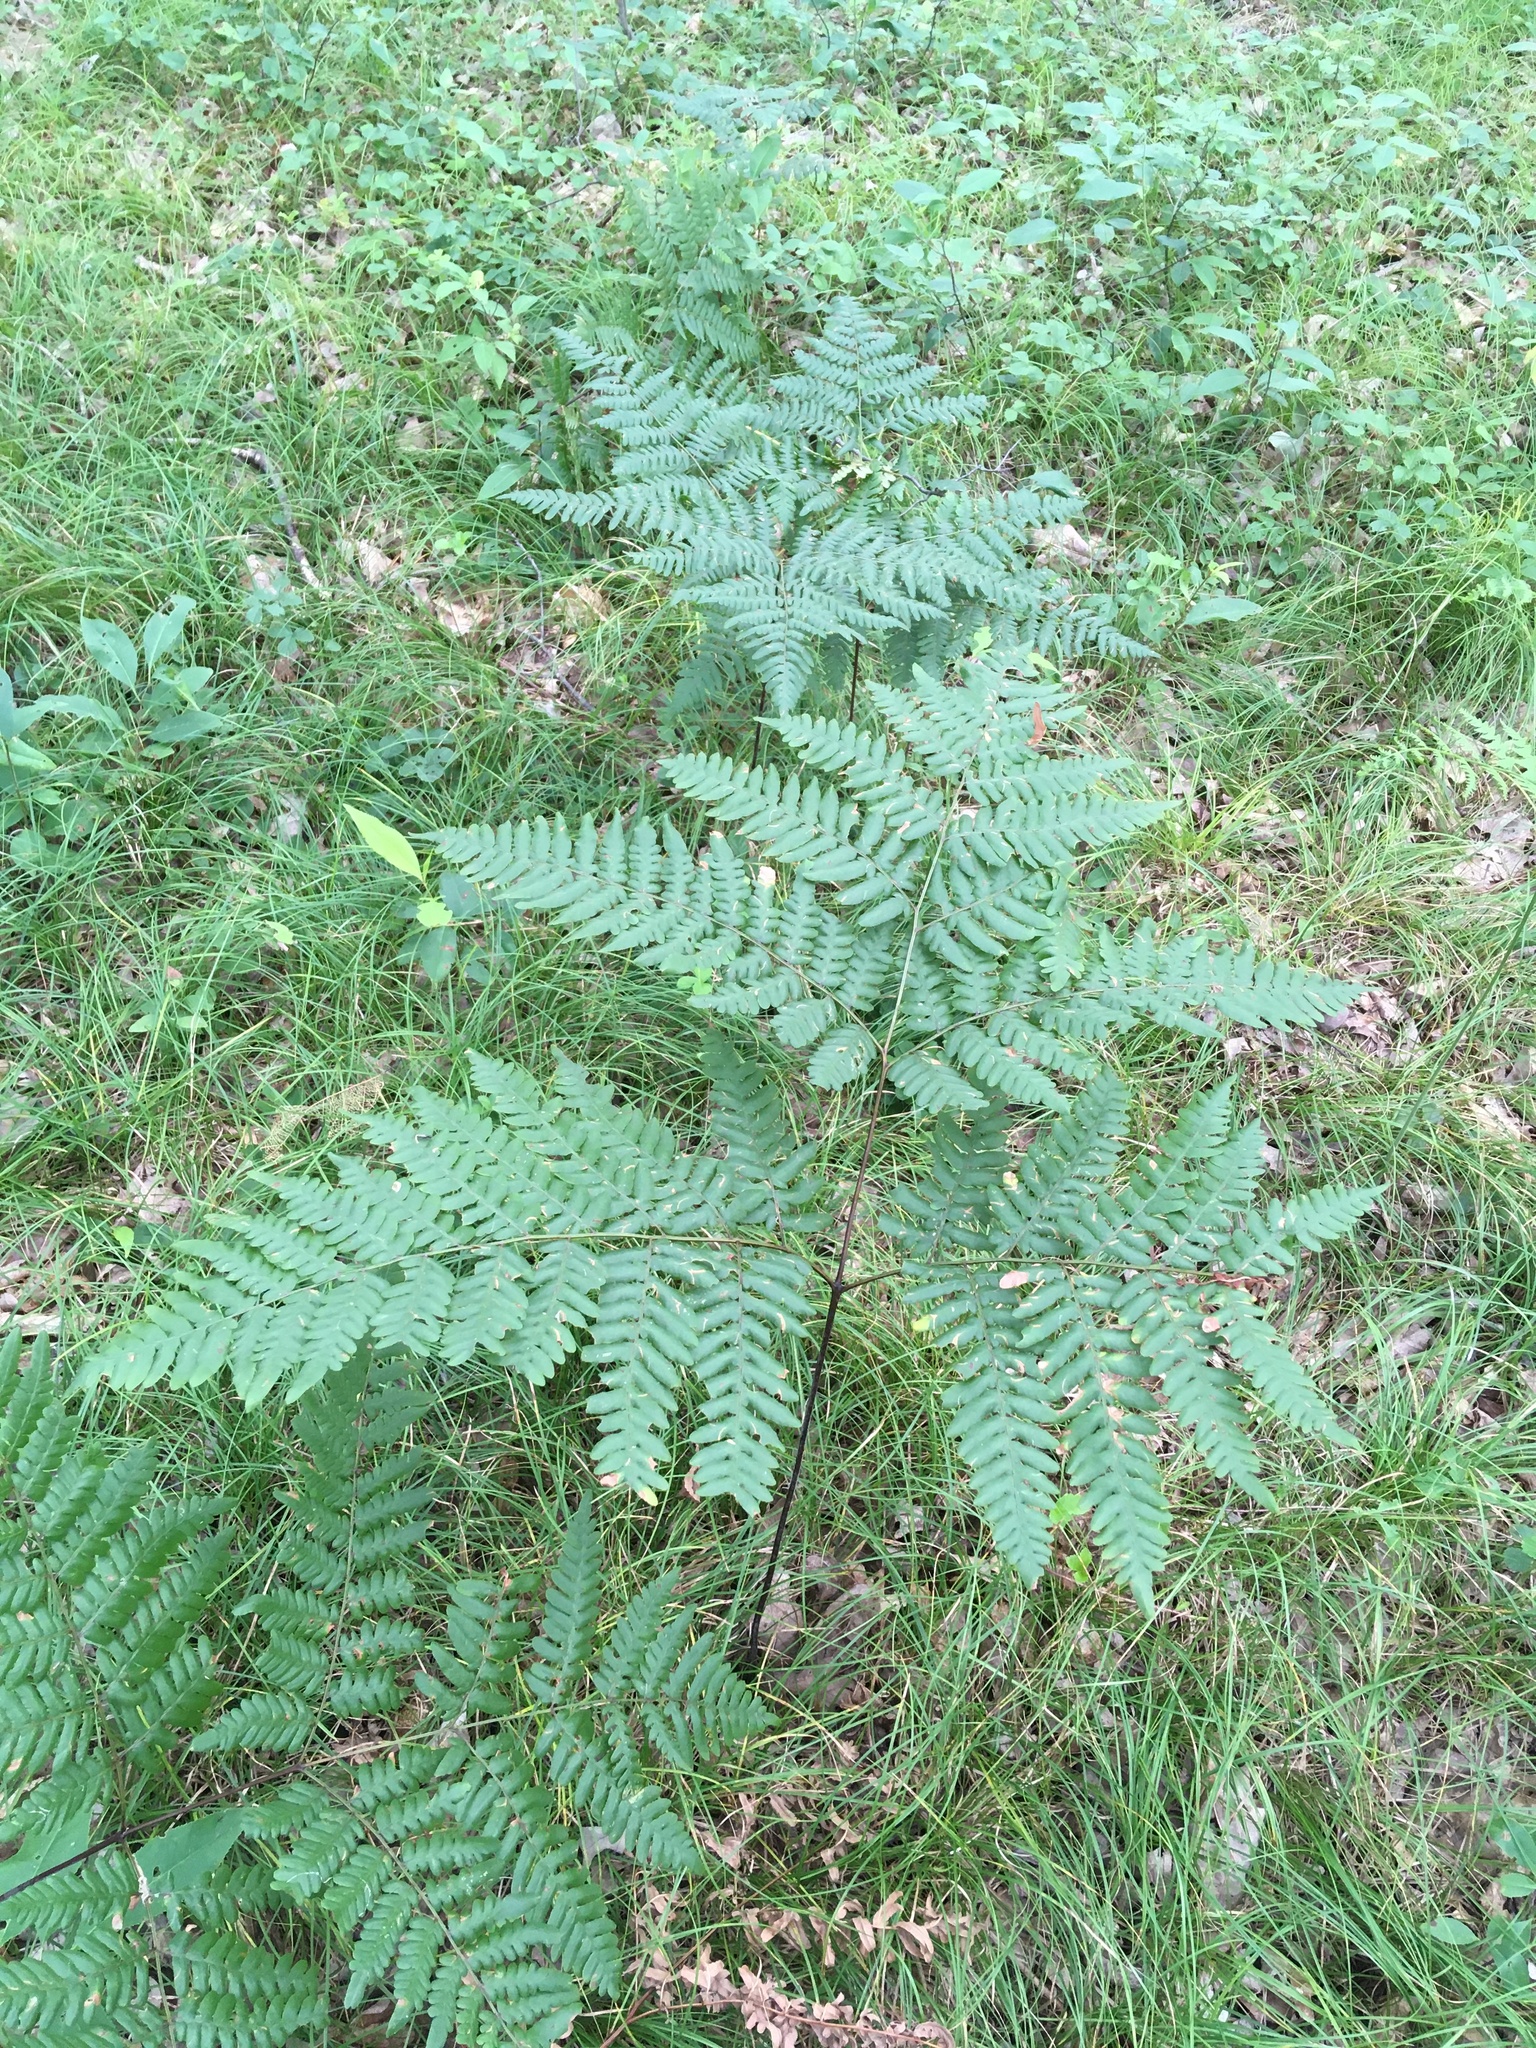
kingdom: Plantae
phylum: Tracheophyta
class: Polypodiopsida
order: Polypodiales
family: Dennstaedtiaceae
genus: Pteridium
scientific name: Pteridium aquilinum
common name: Bracken
